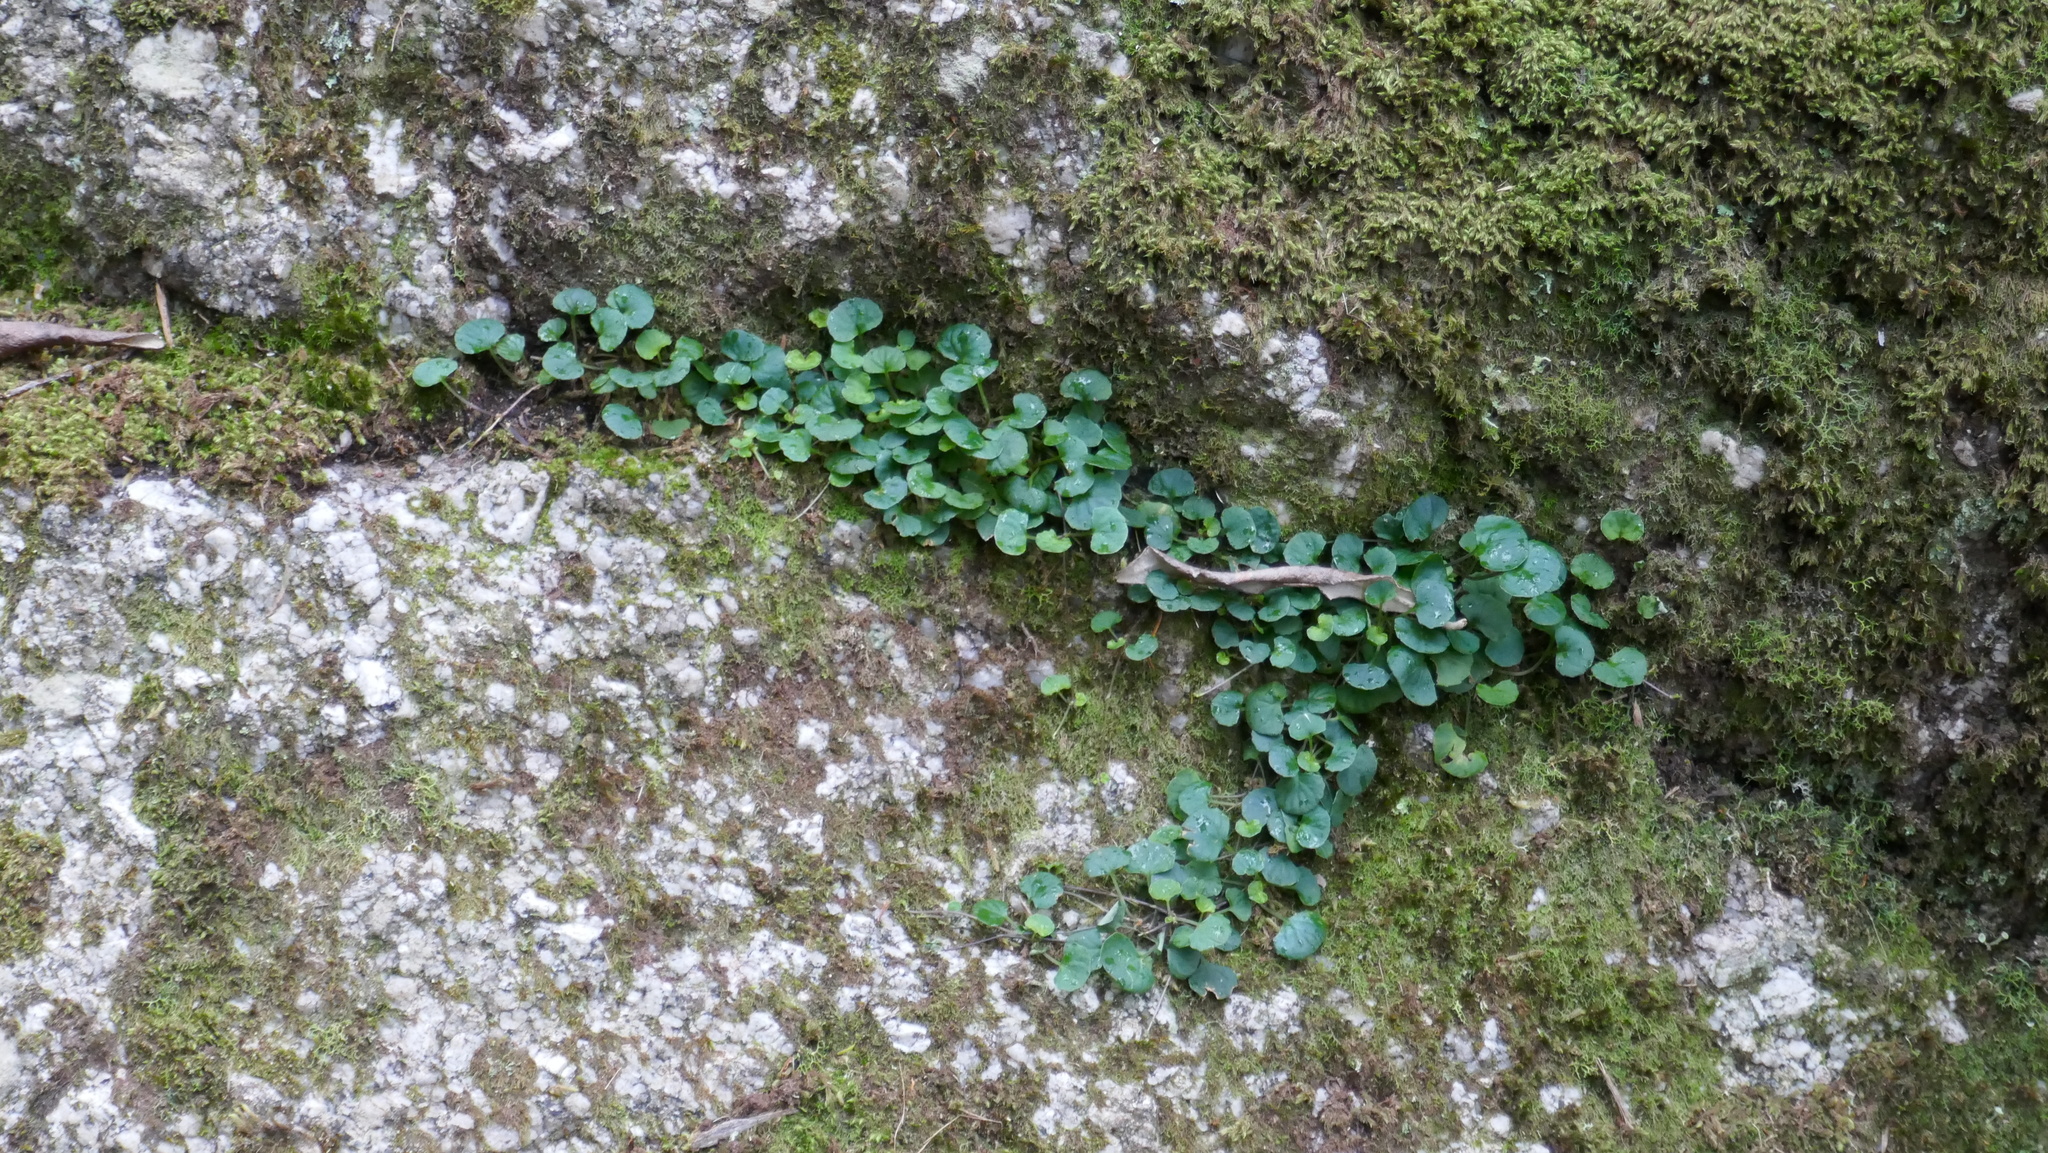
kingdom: Plantae
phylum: Tracheophyta
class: Magnoliopsida
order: Malpighiales
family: Violaceae
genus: Viola
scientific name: Viola hederacea
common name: Australian violet
